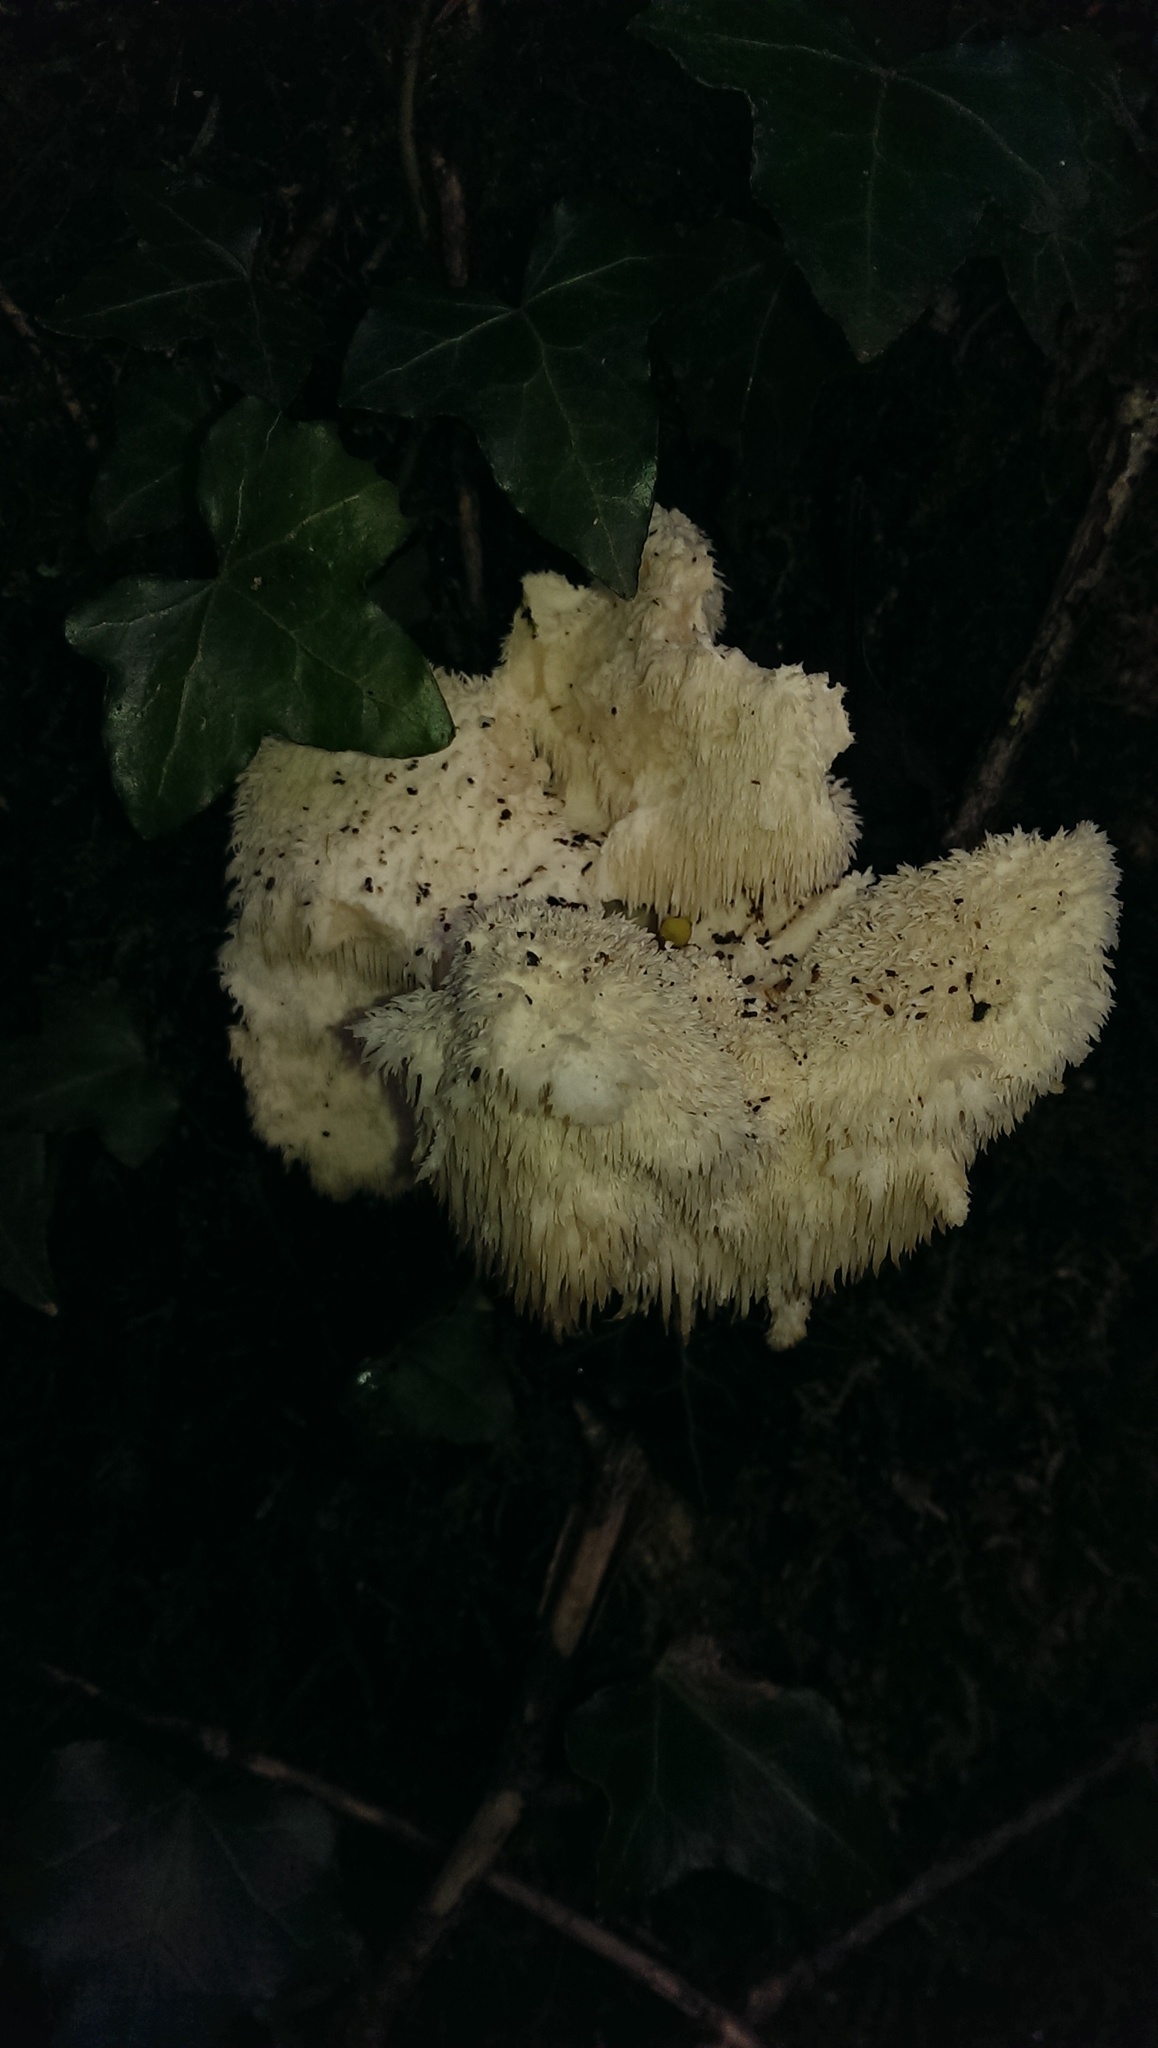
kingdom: Fungi
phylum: Basidiomycota
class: Agaricomycetes
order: Russulales
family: Hericiaceae
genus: Hericium
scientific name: Hericium cirrhatum
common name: Tiered tooth
